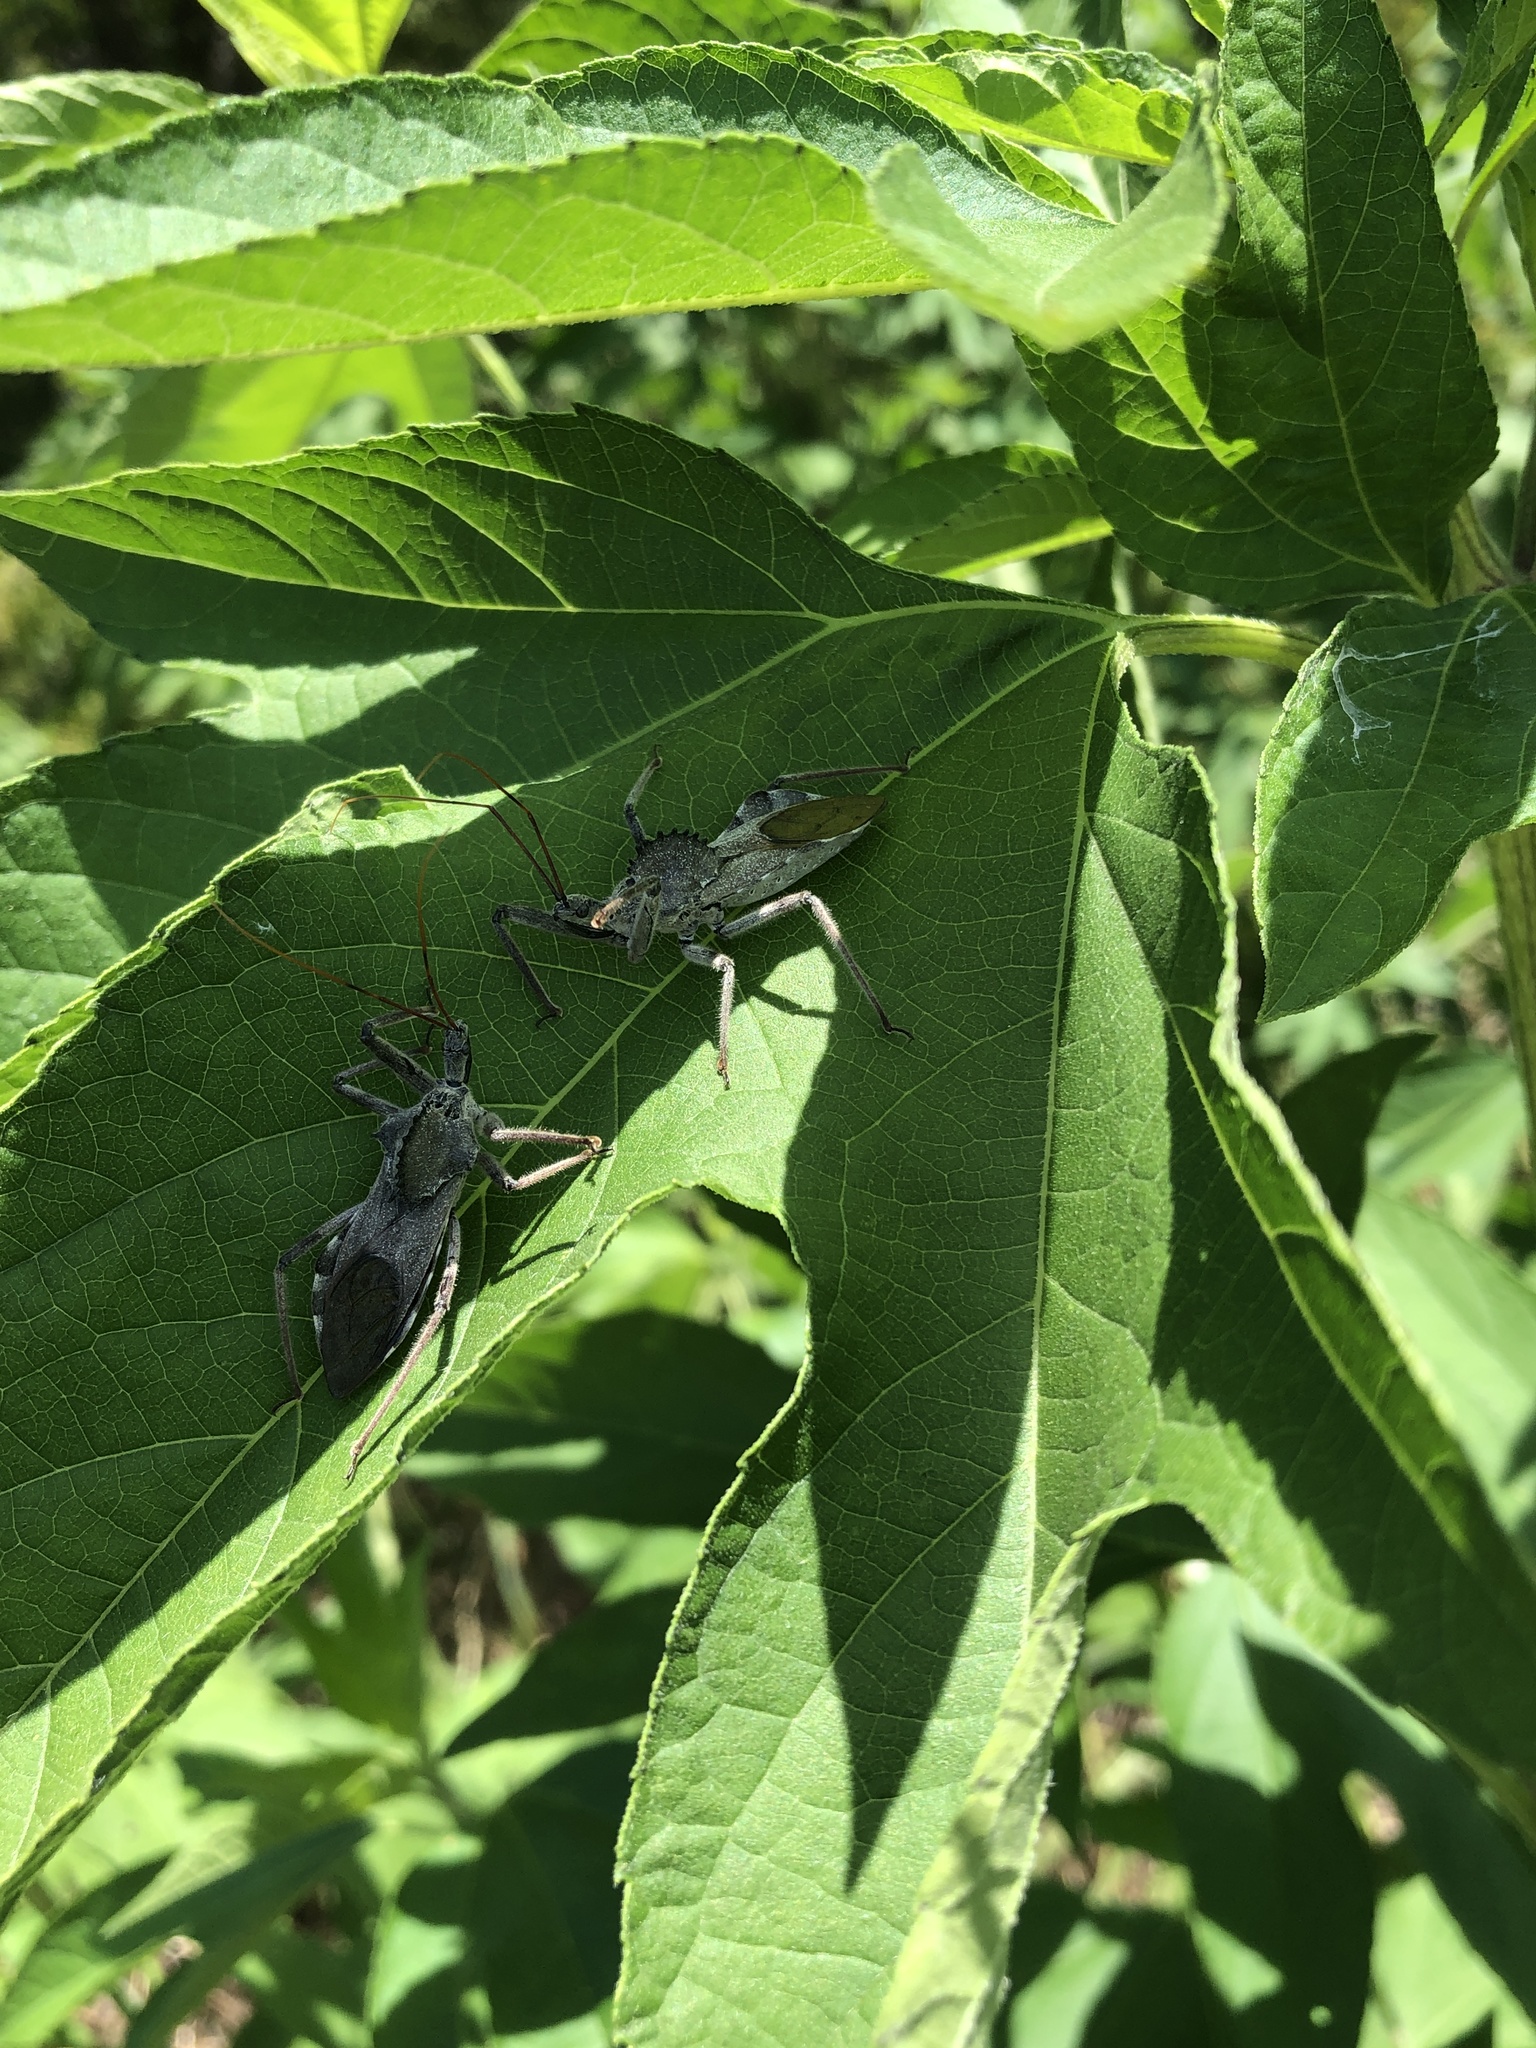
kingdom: Animalia
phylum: Arthropoda
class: Insecta
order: Hemiptera
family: Reduviidae
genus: Arilus
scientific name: Arilus cristatus
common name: North american wheel bug
